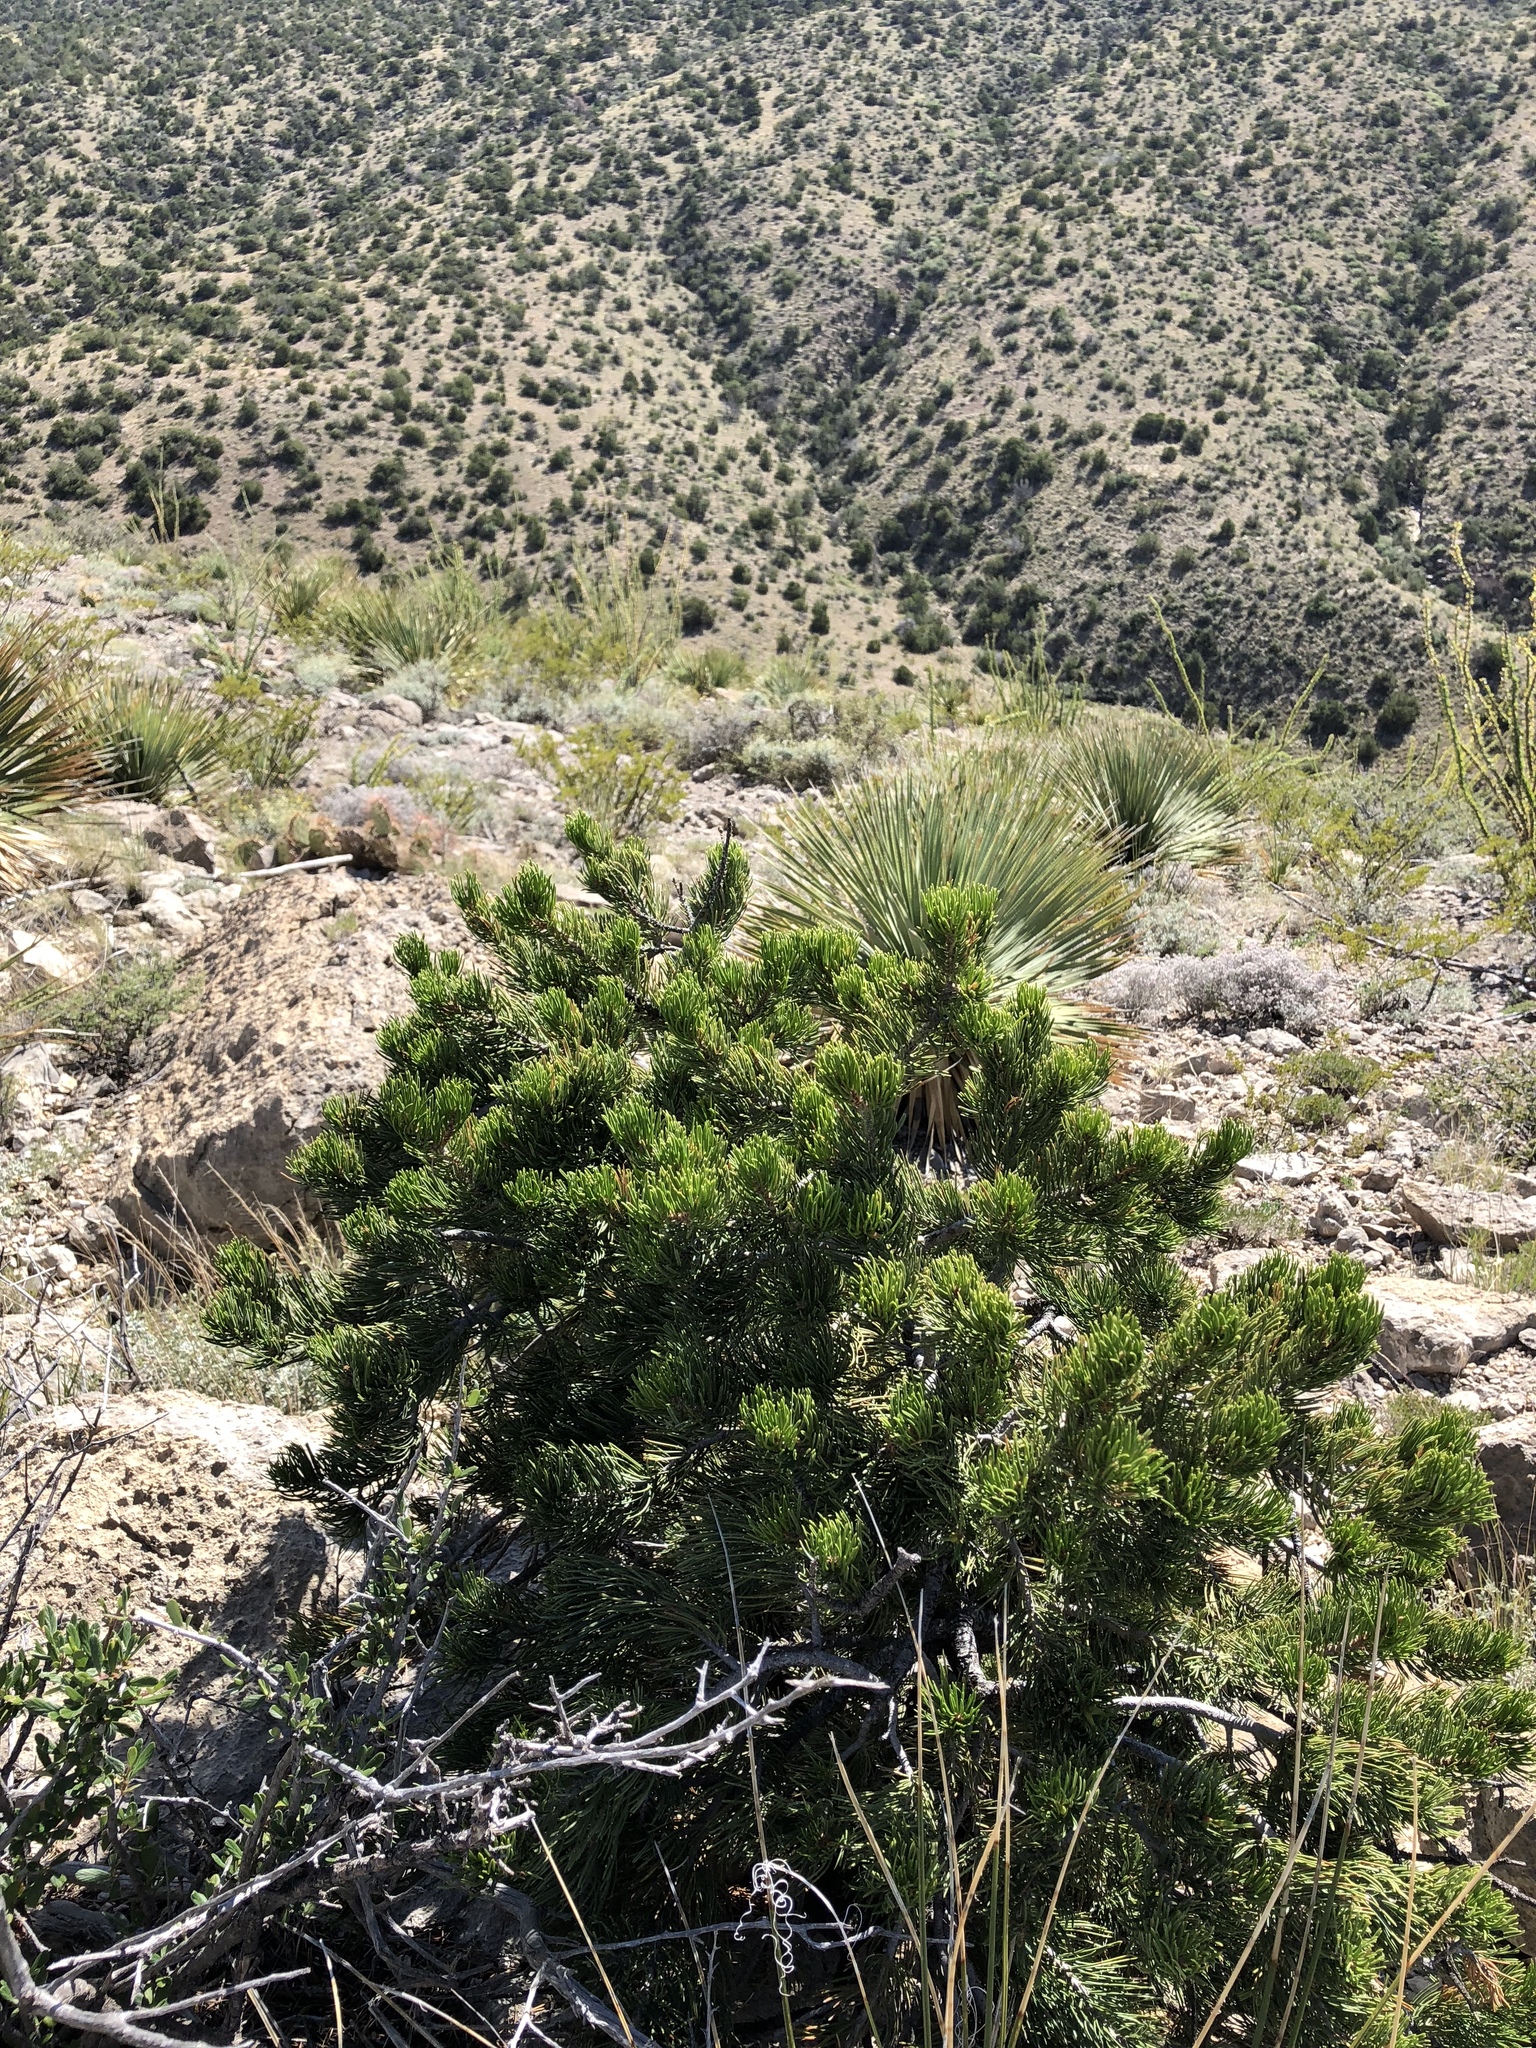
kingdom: Plantae
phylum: Tracheophyta
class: Pinopsida
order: Pinales
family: Pinaceae
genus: Pinus
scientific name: Pinus edulis
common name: Colorado pinyon
